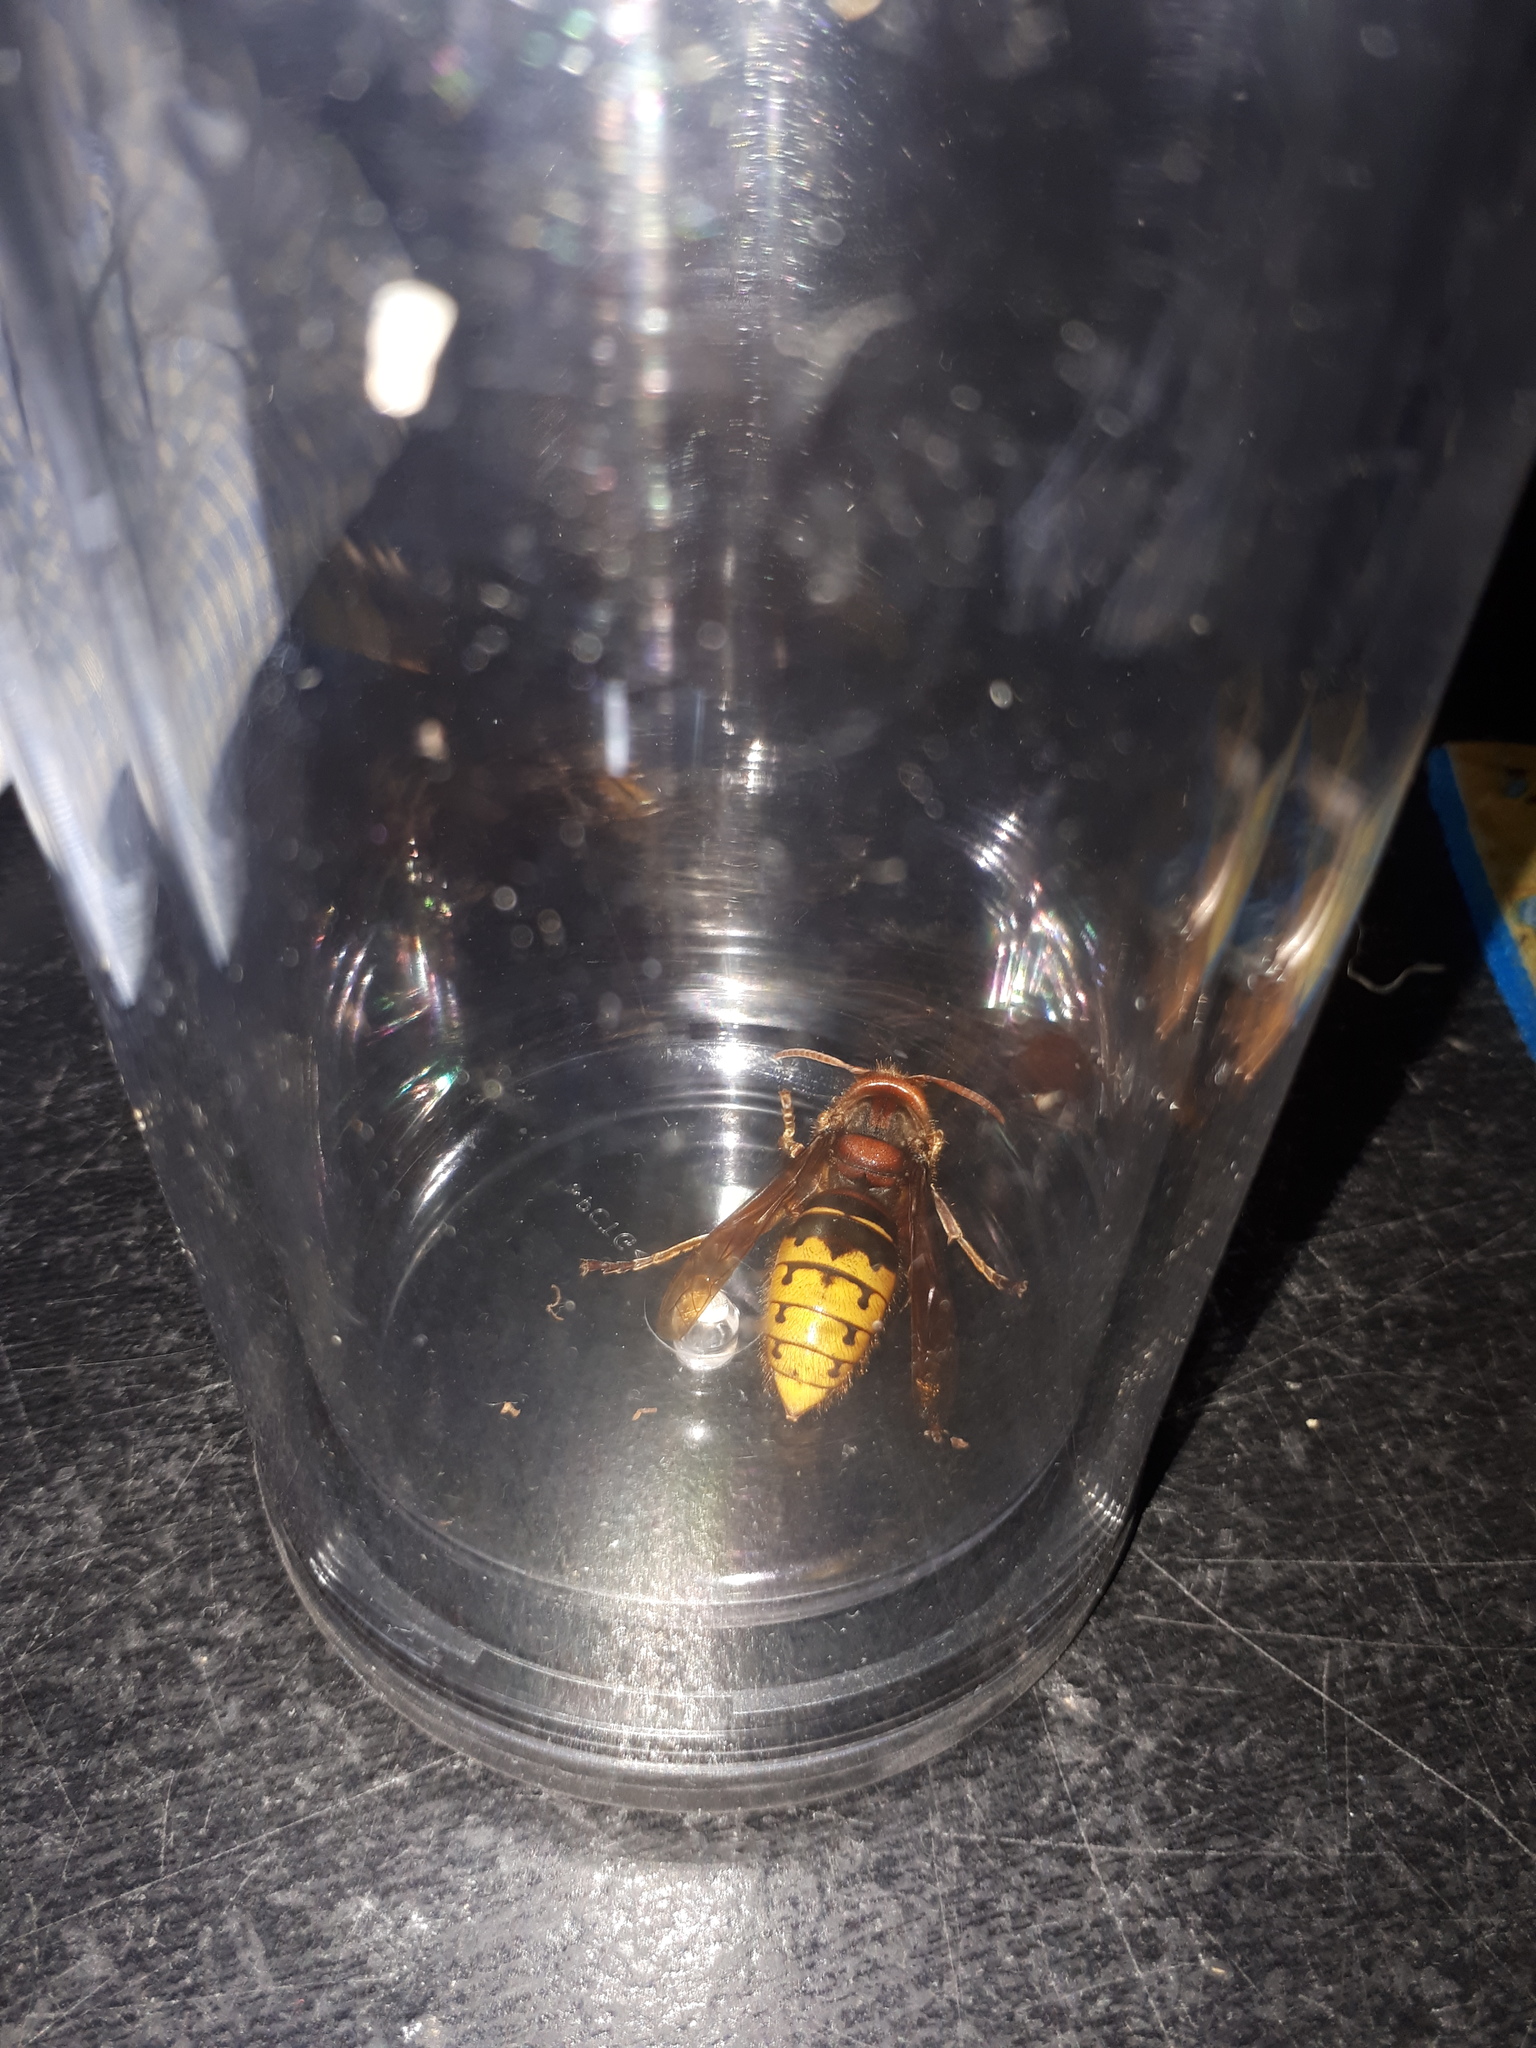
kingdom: Animalia
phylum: Arthropoda
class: Insecta
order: Hymenoptera
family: Vespidae
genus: Vespa
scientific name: Vespa crabro
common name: Hornet
